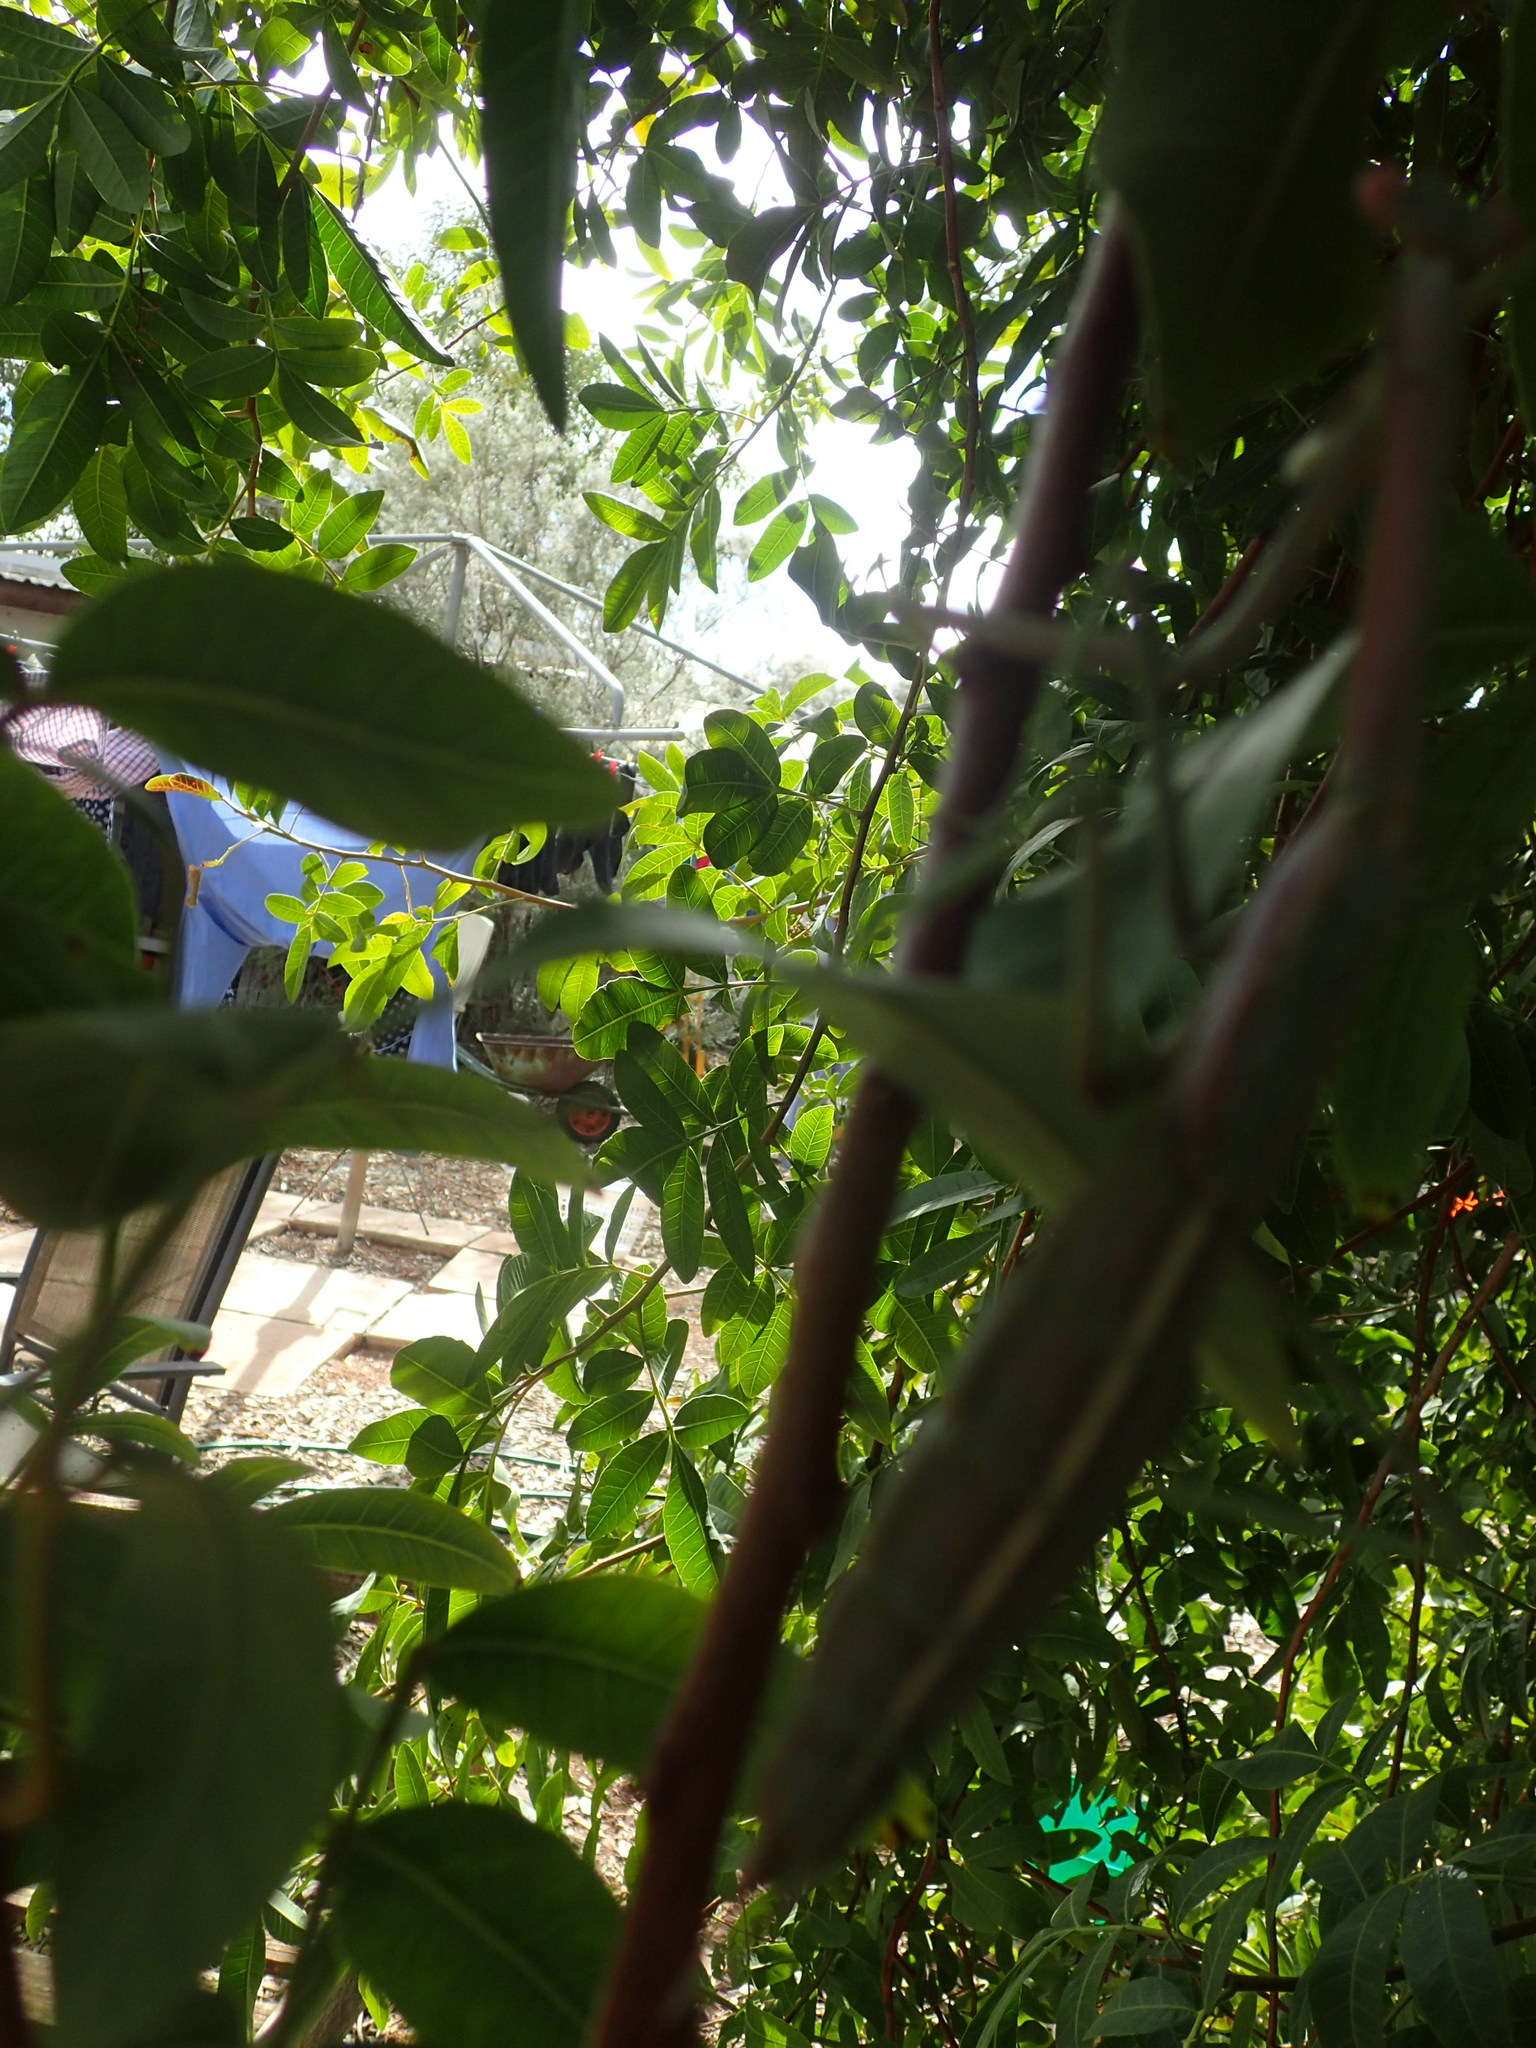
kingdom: Animalia
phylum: Arthropoda
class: Insecta
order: Mantodea
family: Mantidae
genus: Archimantis
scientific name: Archimantis sobrina
